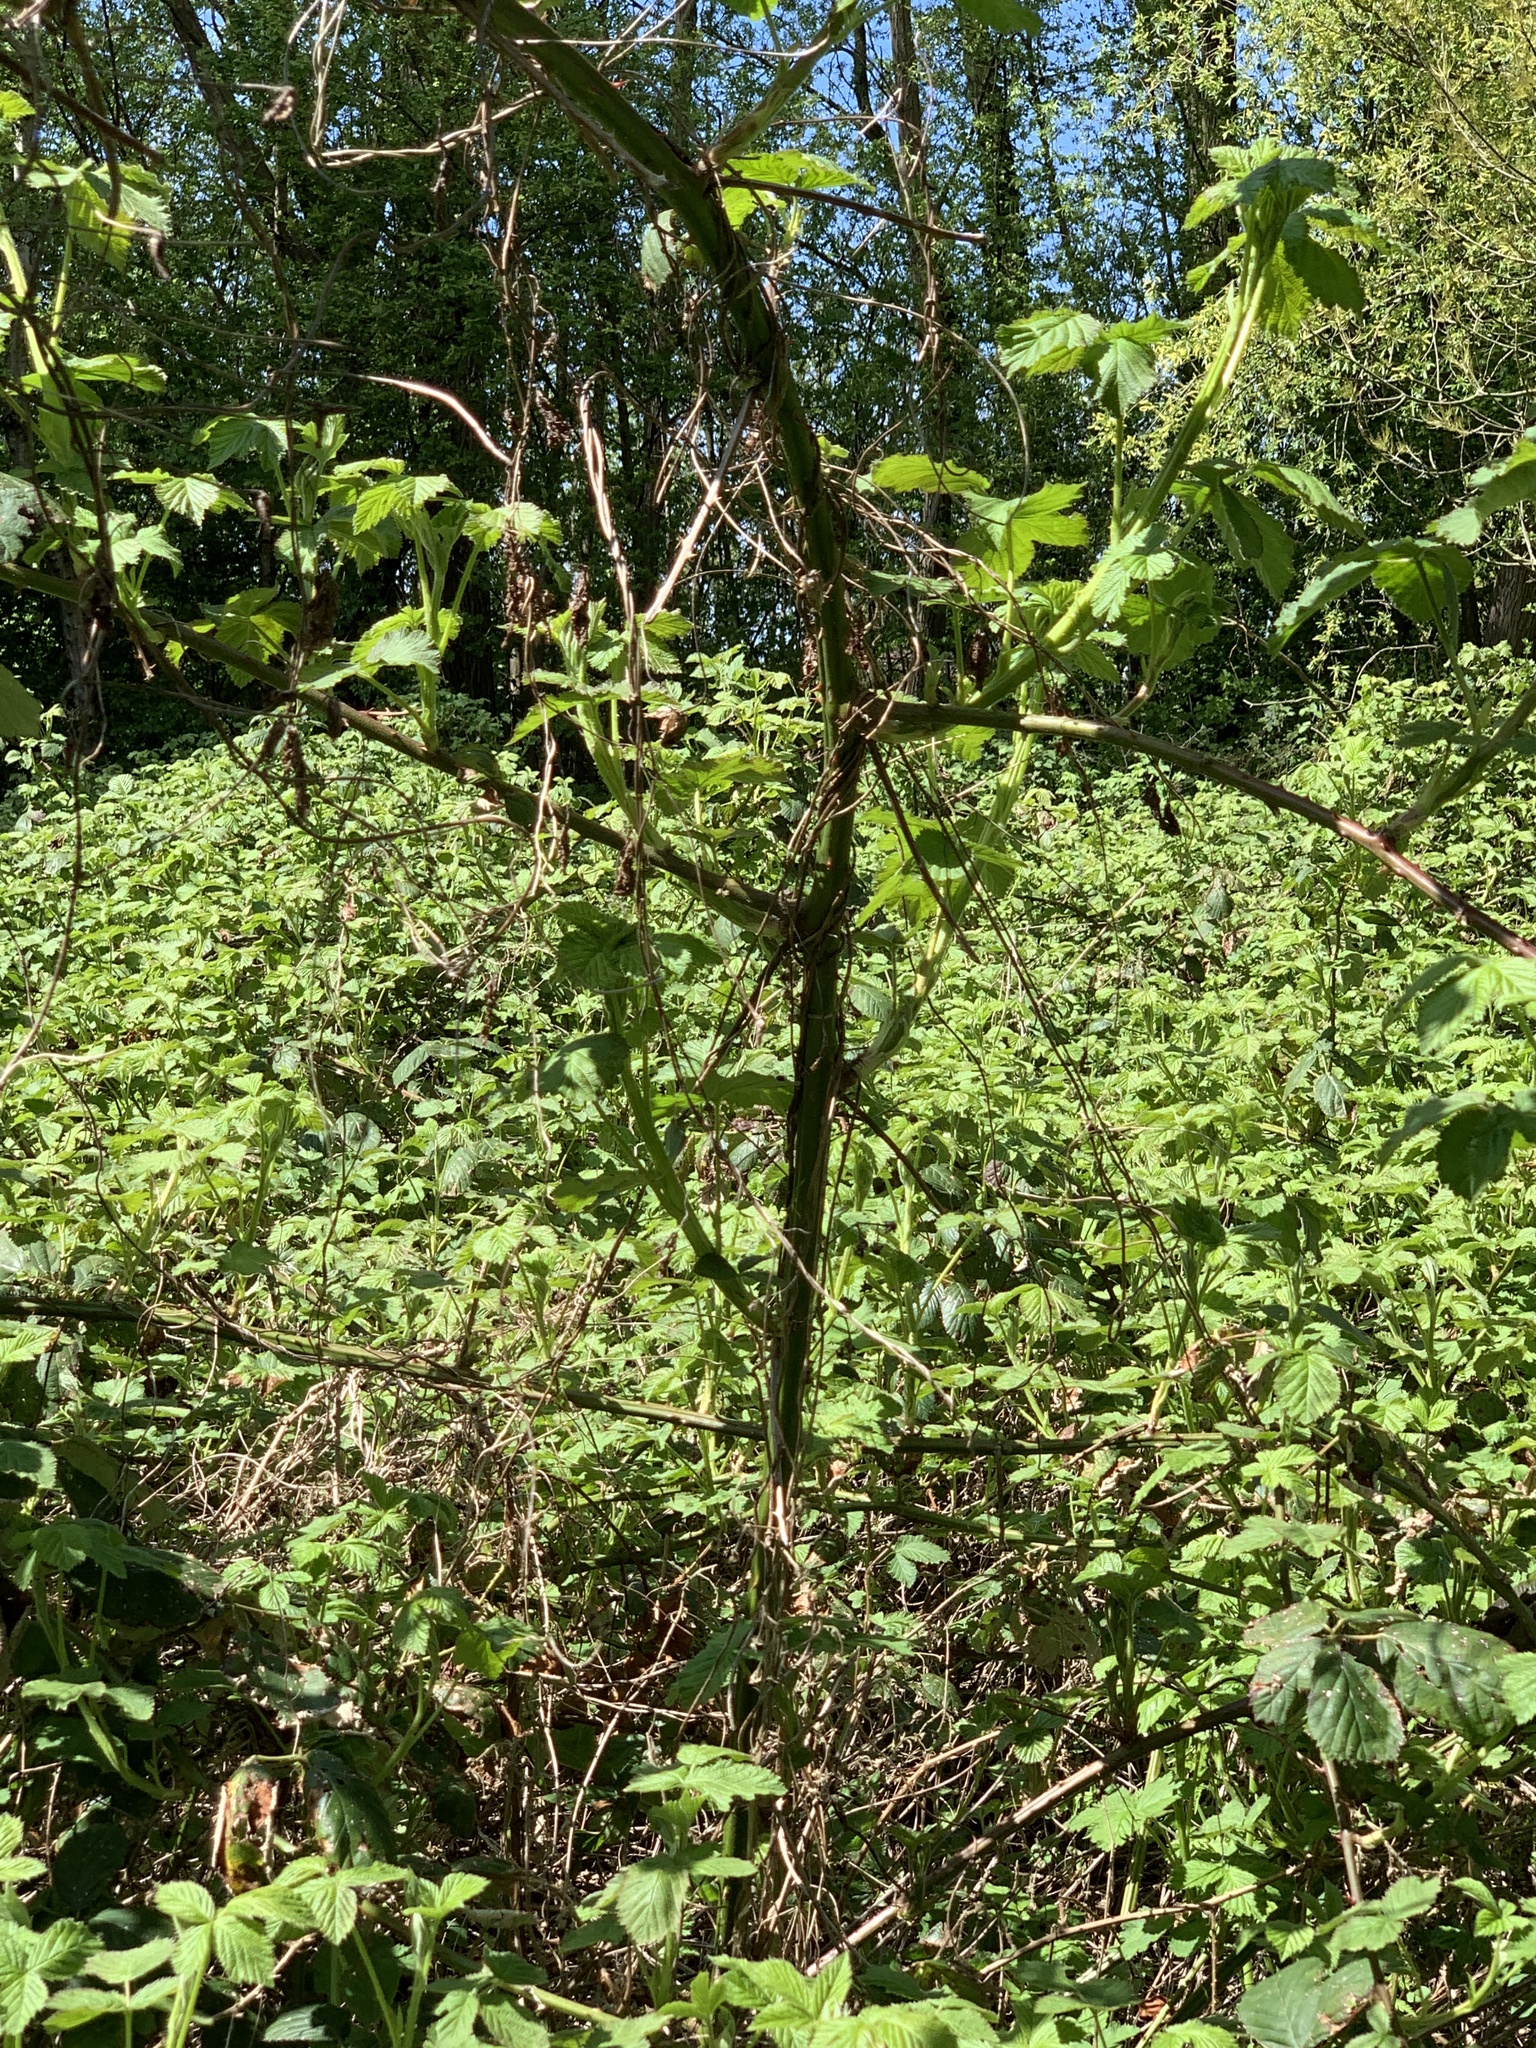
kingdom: Plantae
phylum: Tracheophyta
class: Magnoliopsida
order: Rosales
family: Rosaceae
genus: Rubus
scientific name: Rubus armeniacus
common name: Himalayan blackberry
